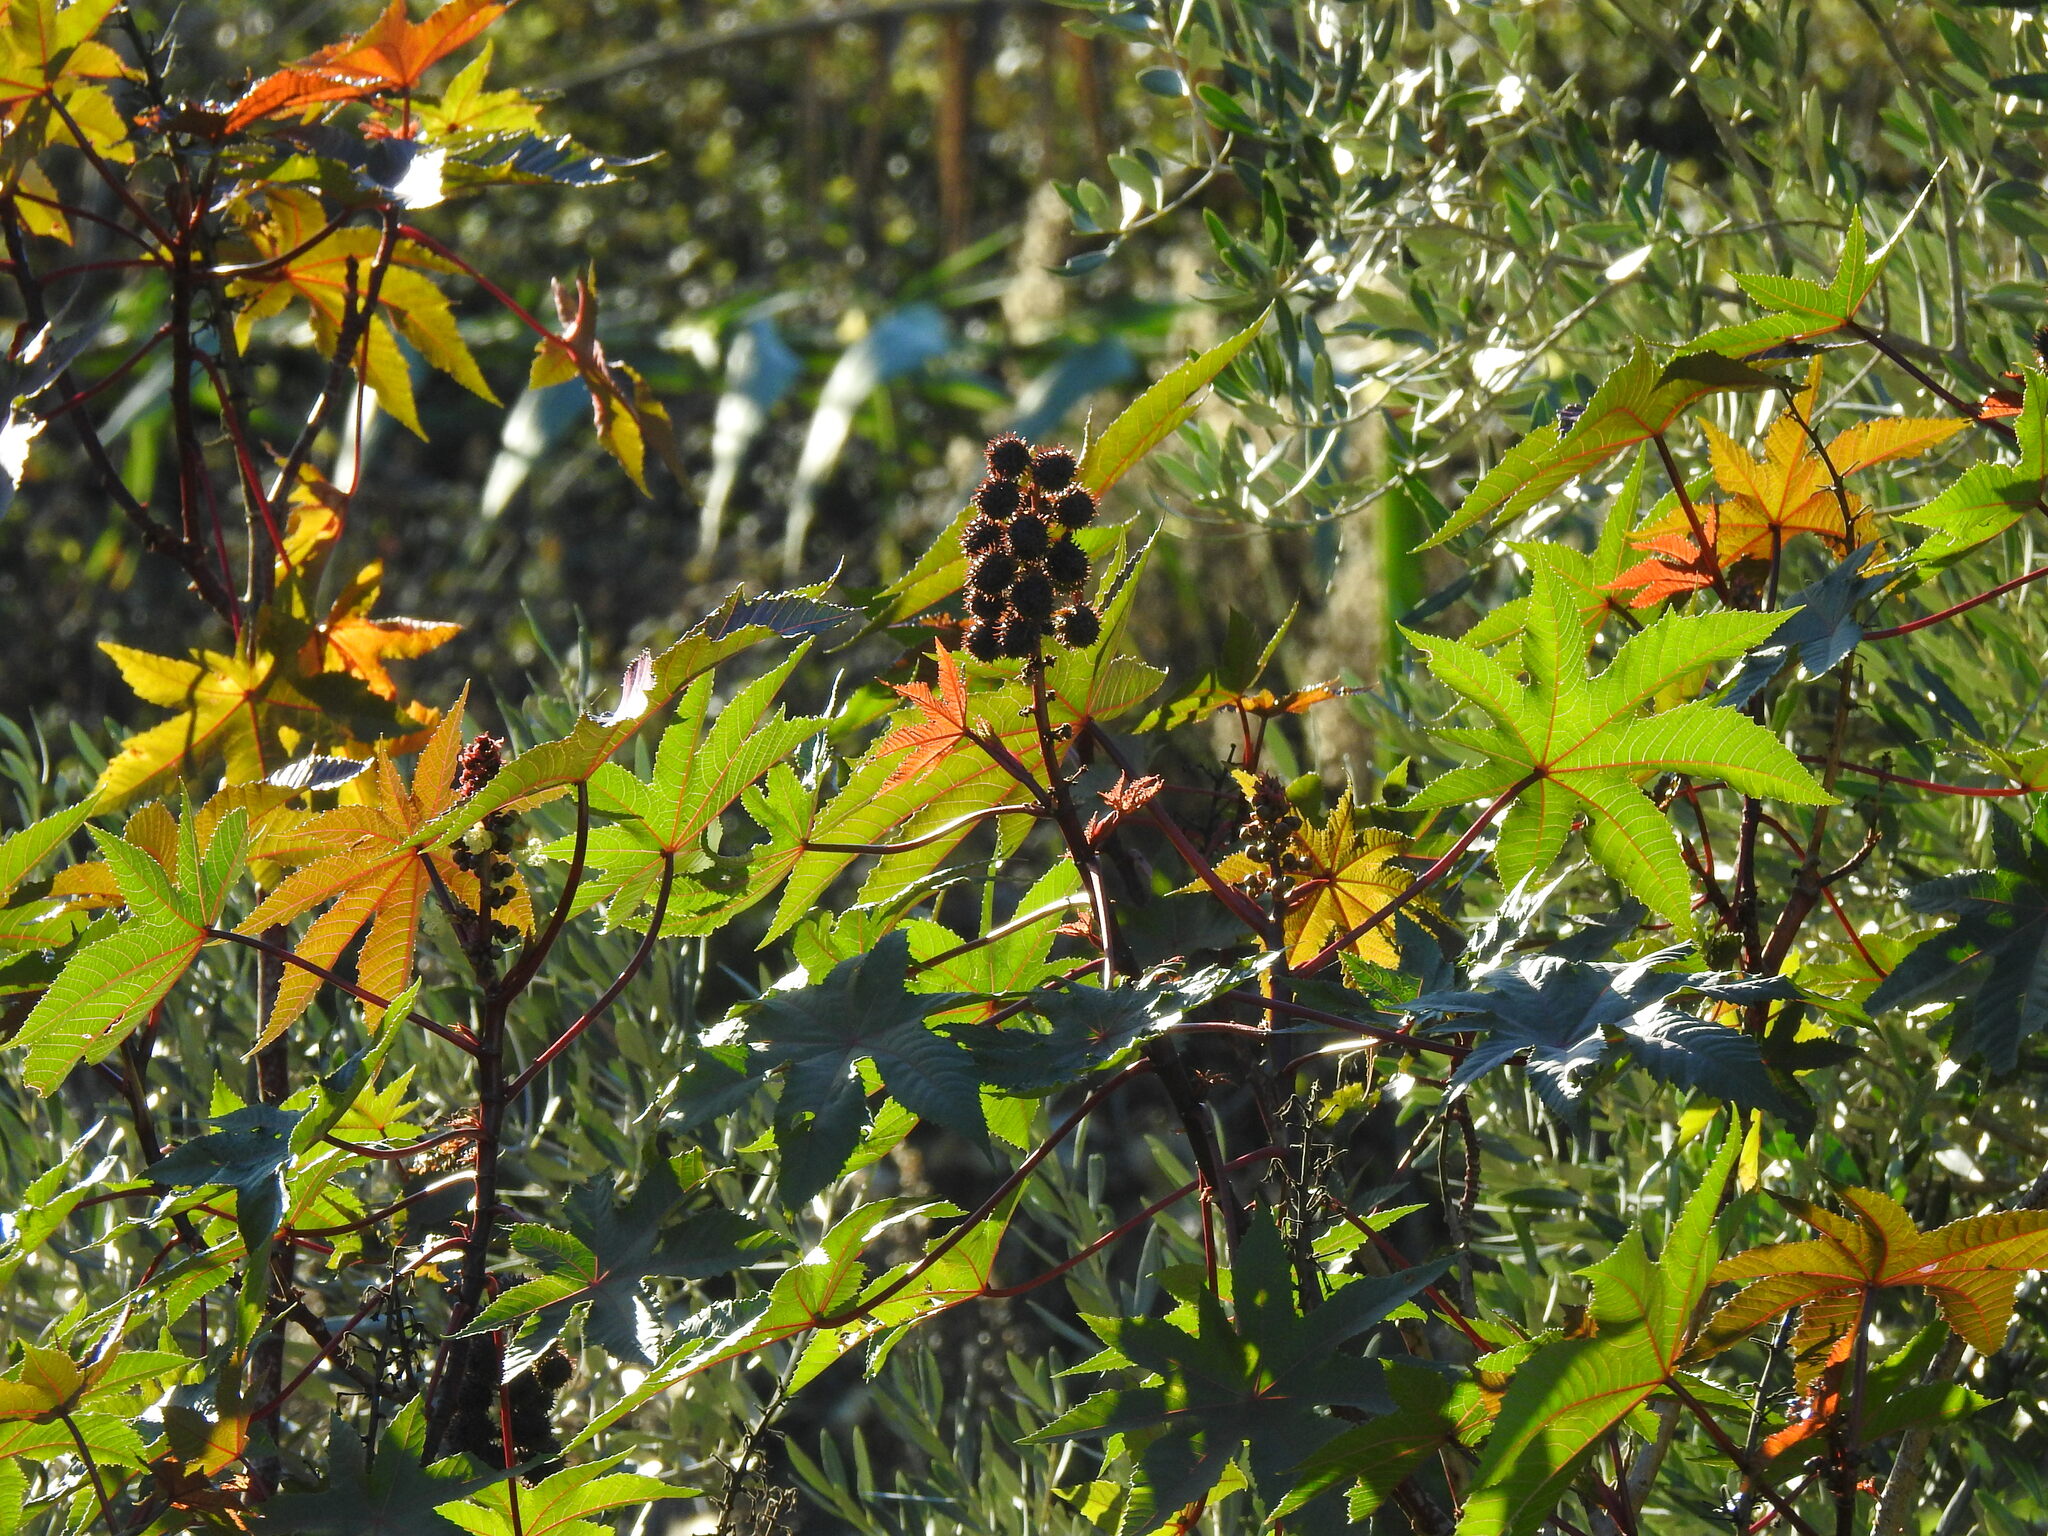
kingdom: Plantae
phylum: Tracheophyta
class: Magnoliopsida
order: Malpighiales
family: Euphorbiaceae
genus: Ricinus
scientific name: Ricinus communis
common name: Castor-oil-plant
